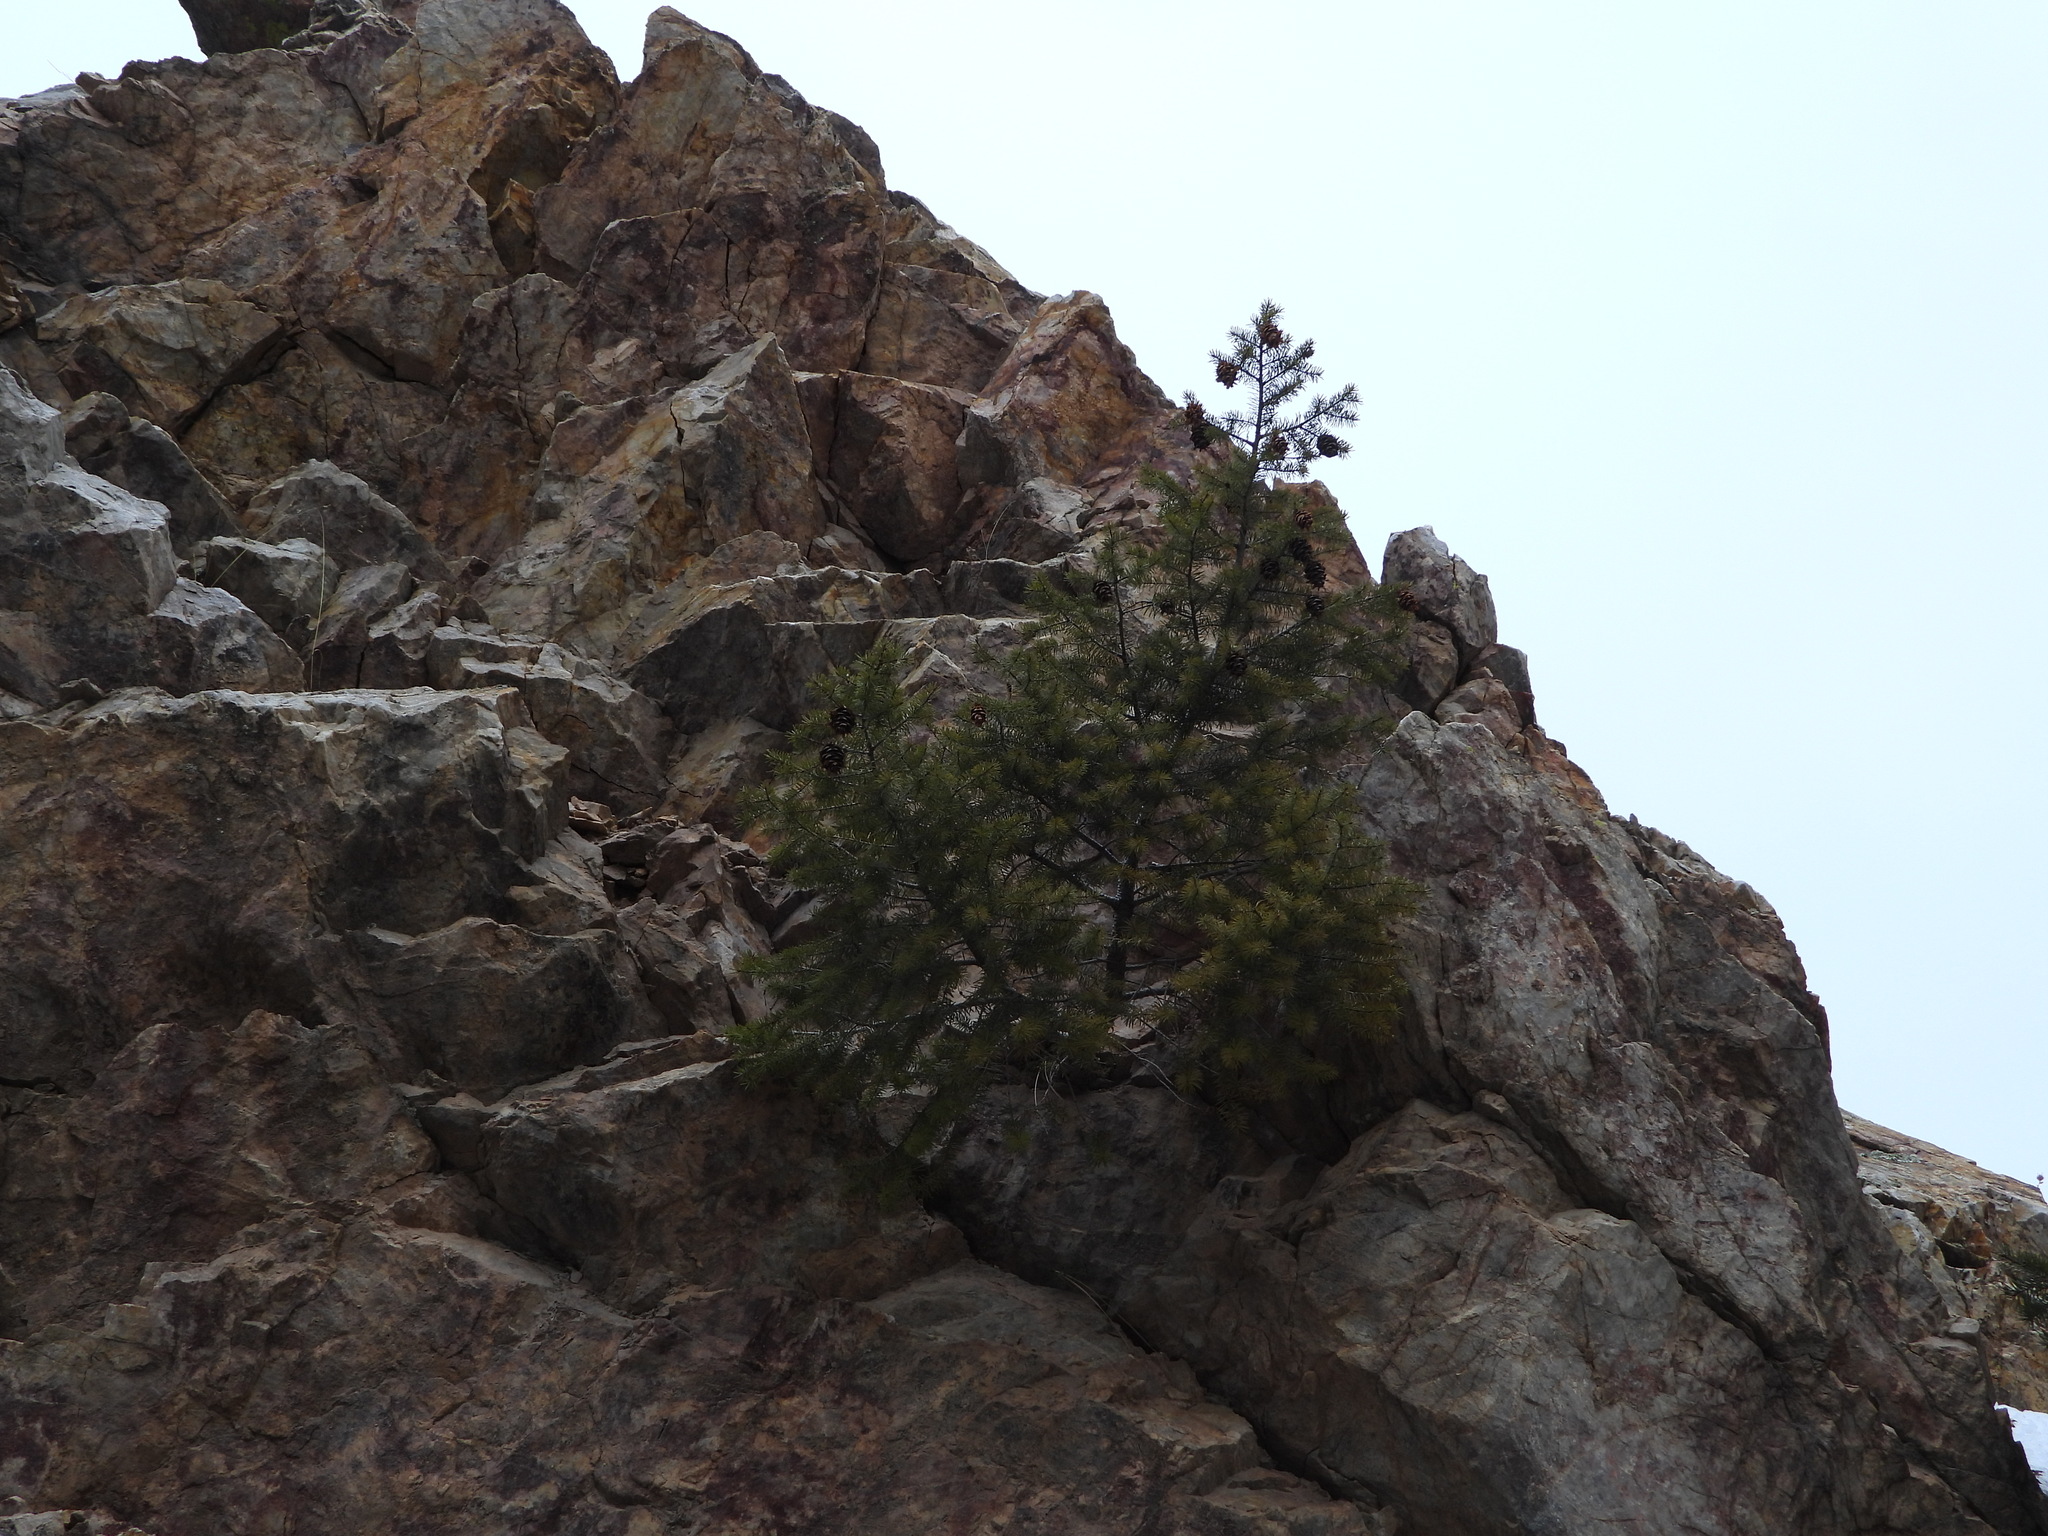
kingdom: Plantae
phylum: Tracheophyta
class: Pinopsida
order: Pinales
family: Pinaceae
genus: Pseudotsuga
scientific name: Pseudotsuga menziesii
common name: Douglas fir
